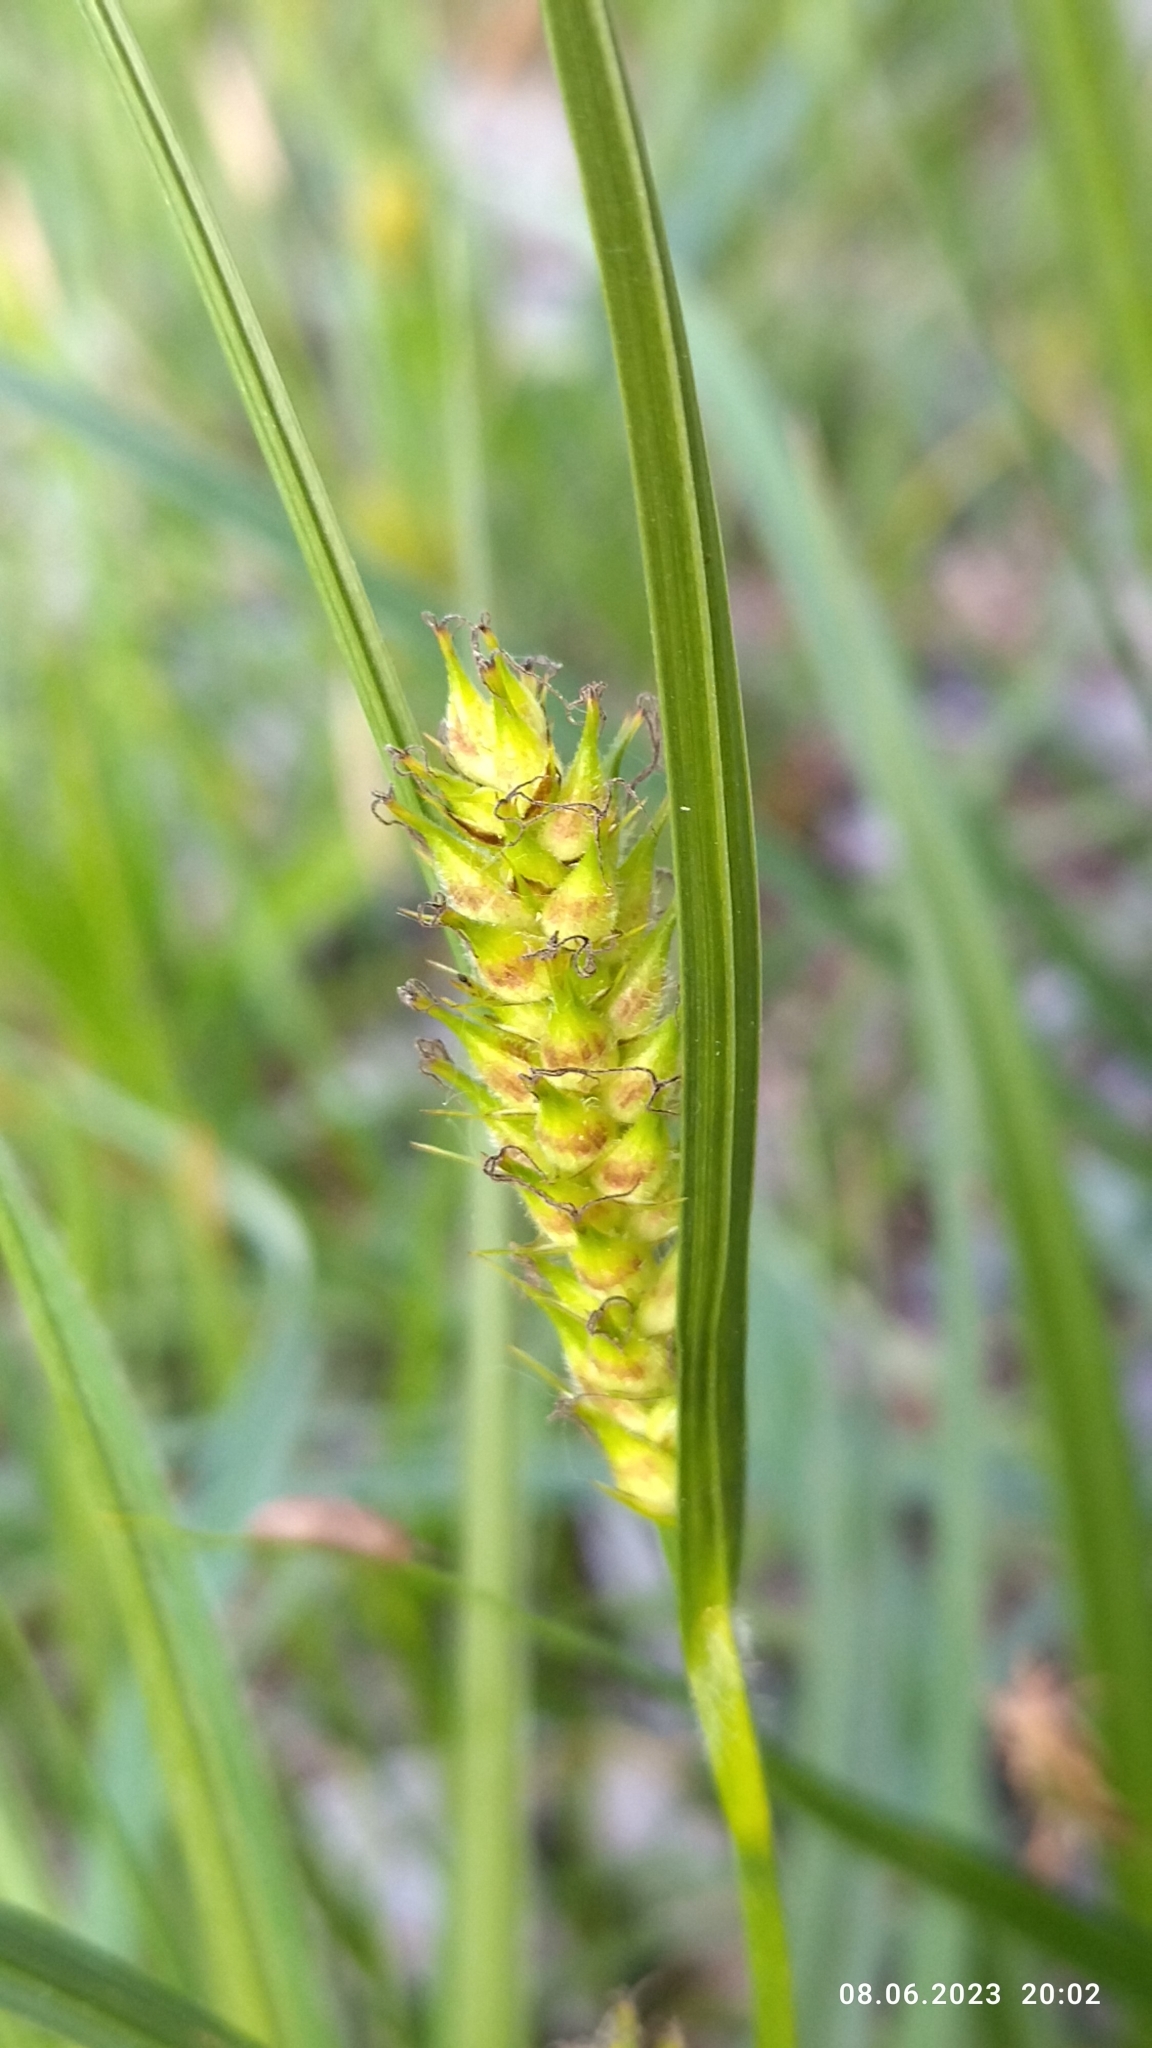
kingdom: Plantae
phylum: Tracheophyta
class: Liliopsida
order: Poales
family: Cyperaceae
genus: Carex
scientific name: Carex hirta
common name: Hairy sedge
